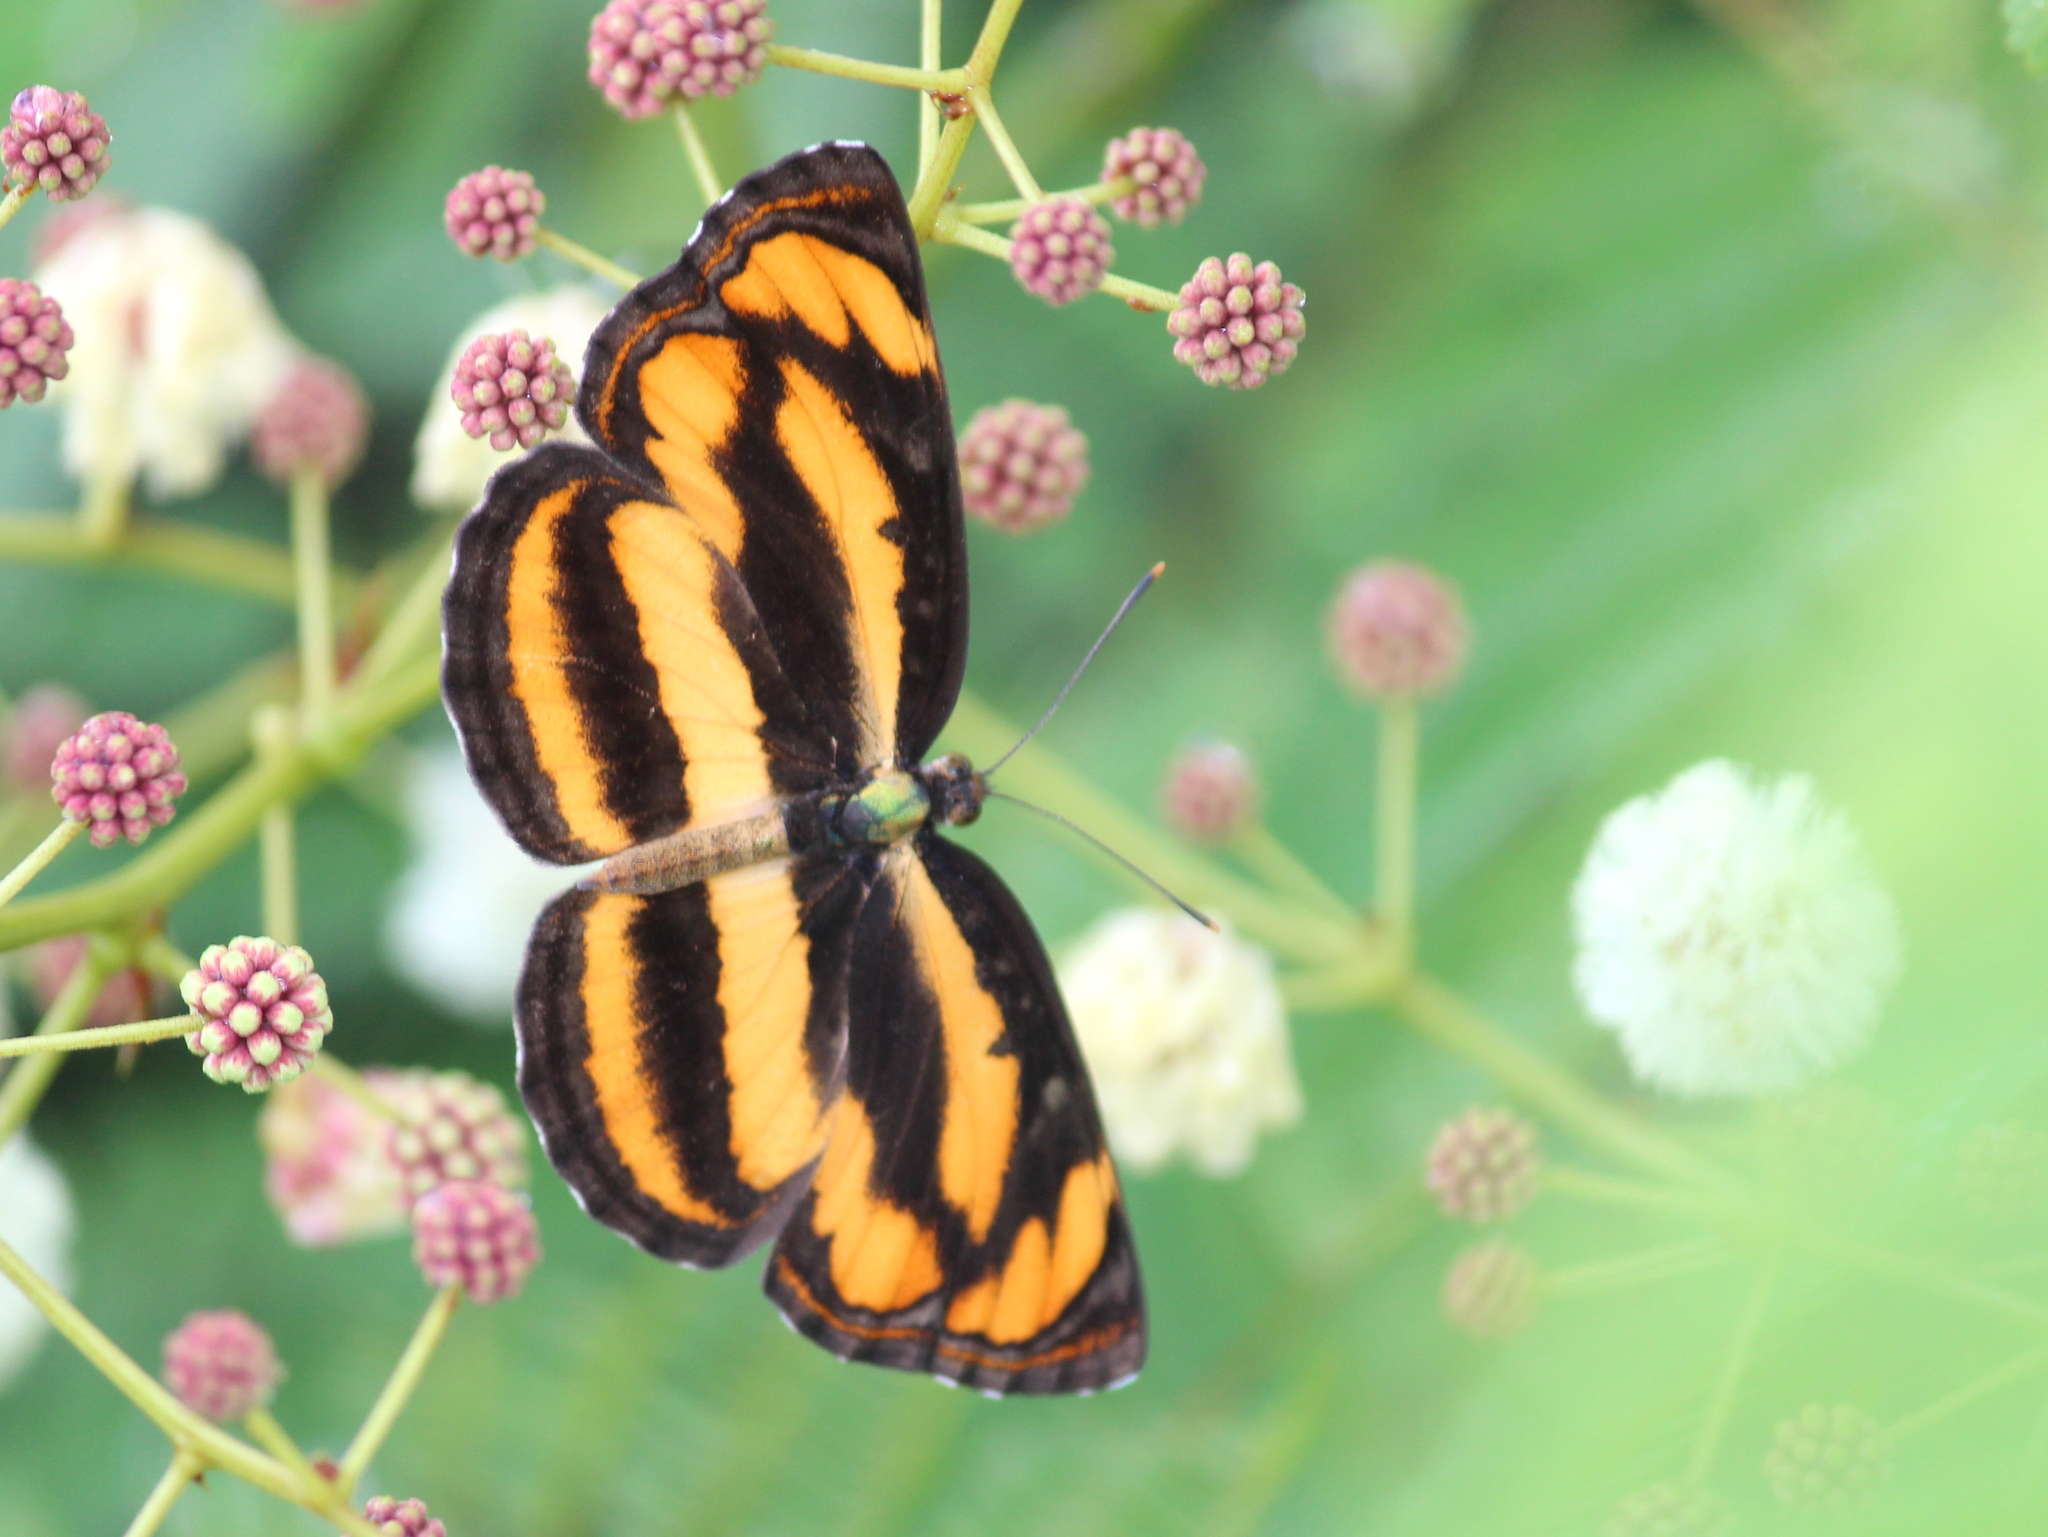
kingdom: Animalia
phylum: Arthropoda
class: Insecta
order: Lepidoptera
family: Nymphalidae
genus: Pantoporia
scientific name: Pantoporia hordonia
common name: Common lascar
